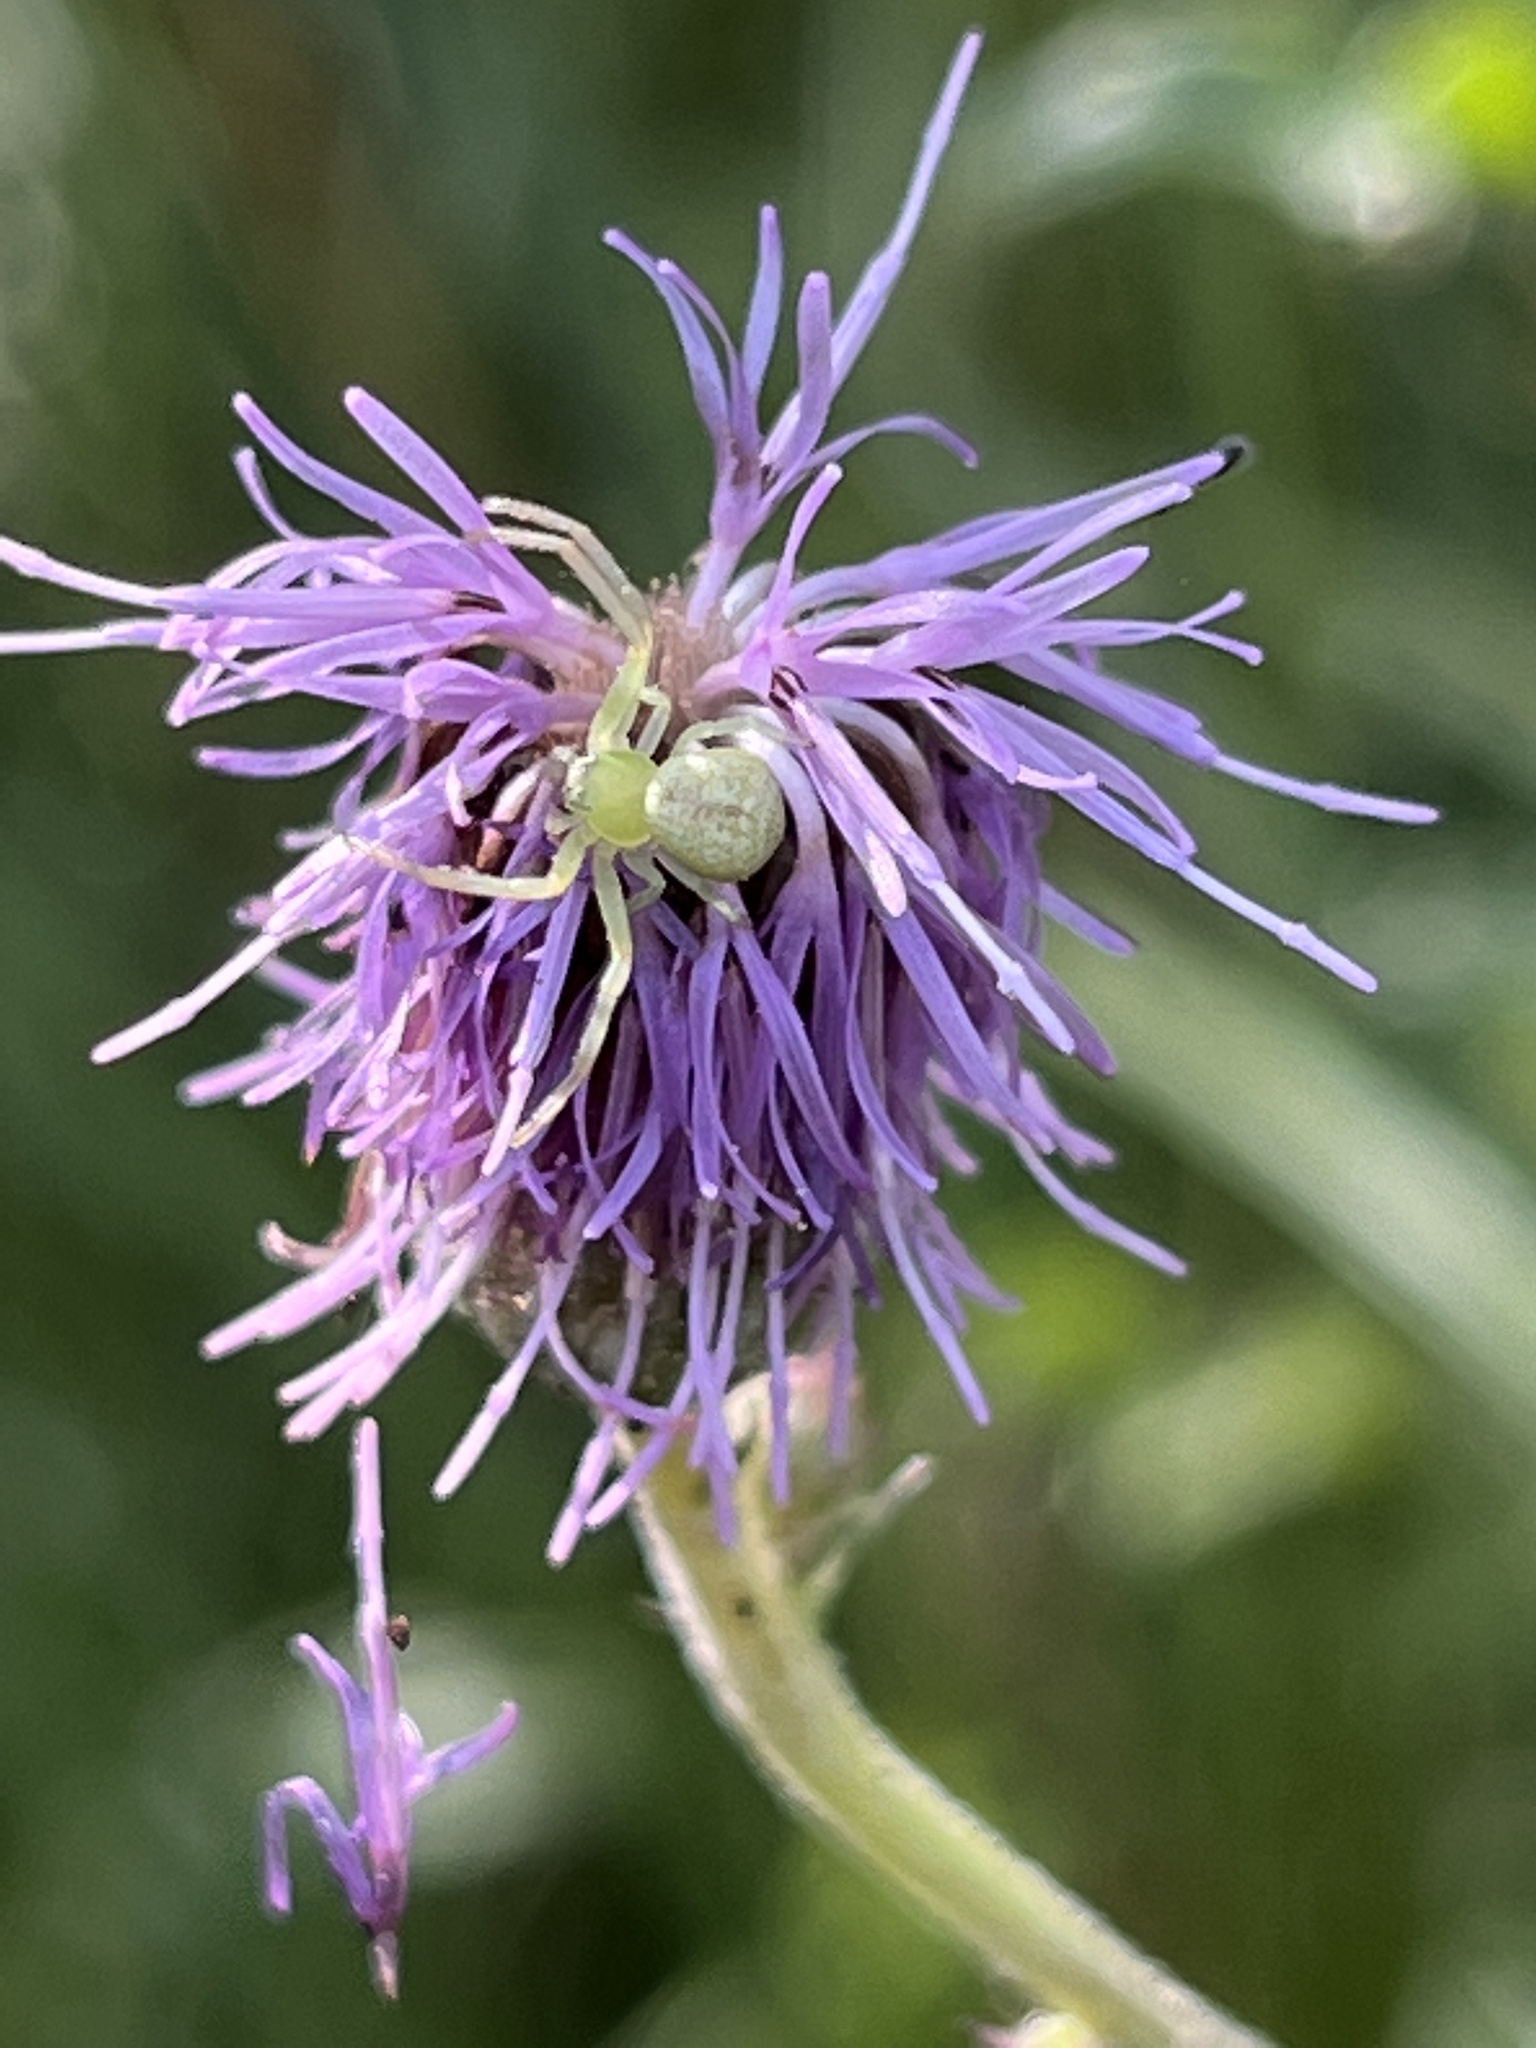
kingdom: Animalia
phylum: Arthropoda
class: Arachnida
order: Araneae
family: Thomisidae
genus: Ebrechtella
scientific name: Ebrechtella tricuspidata
